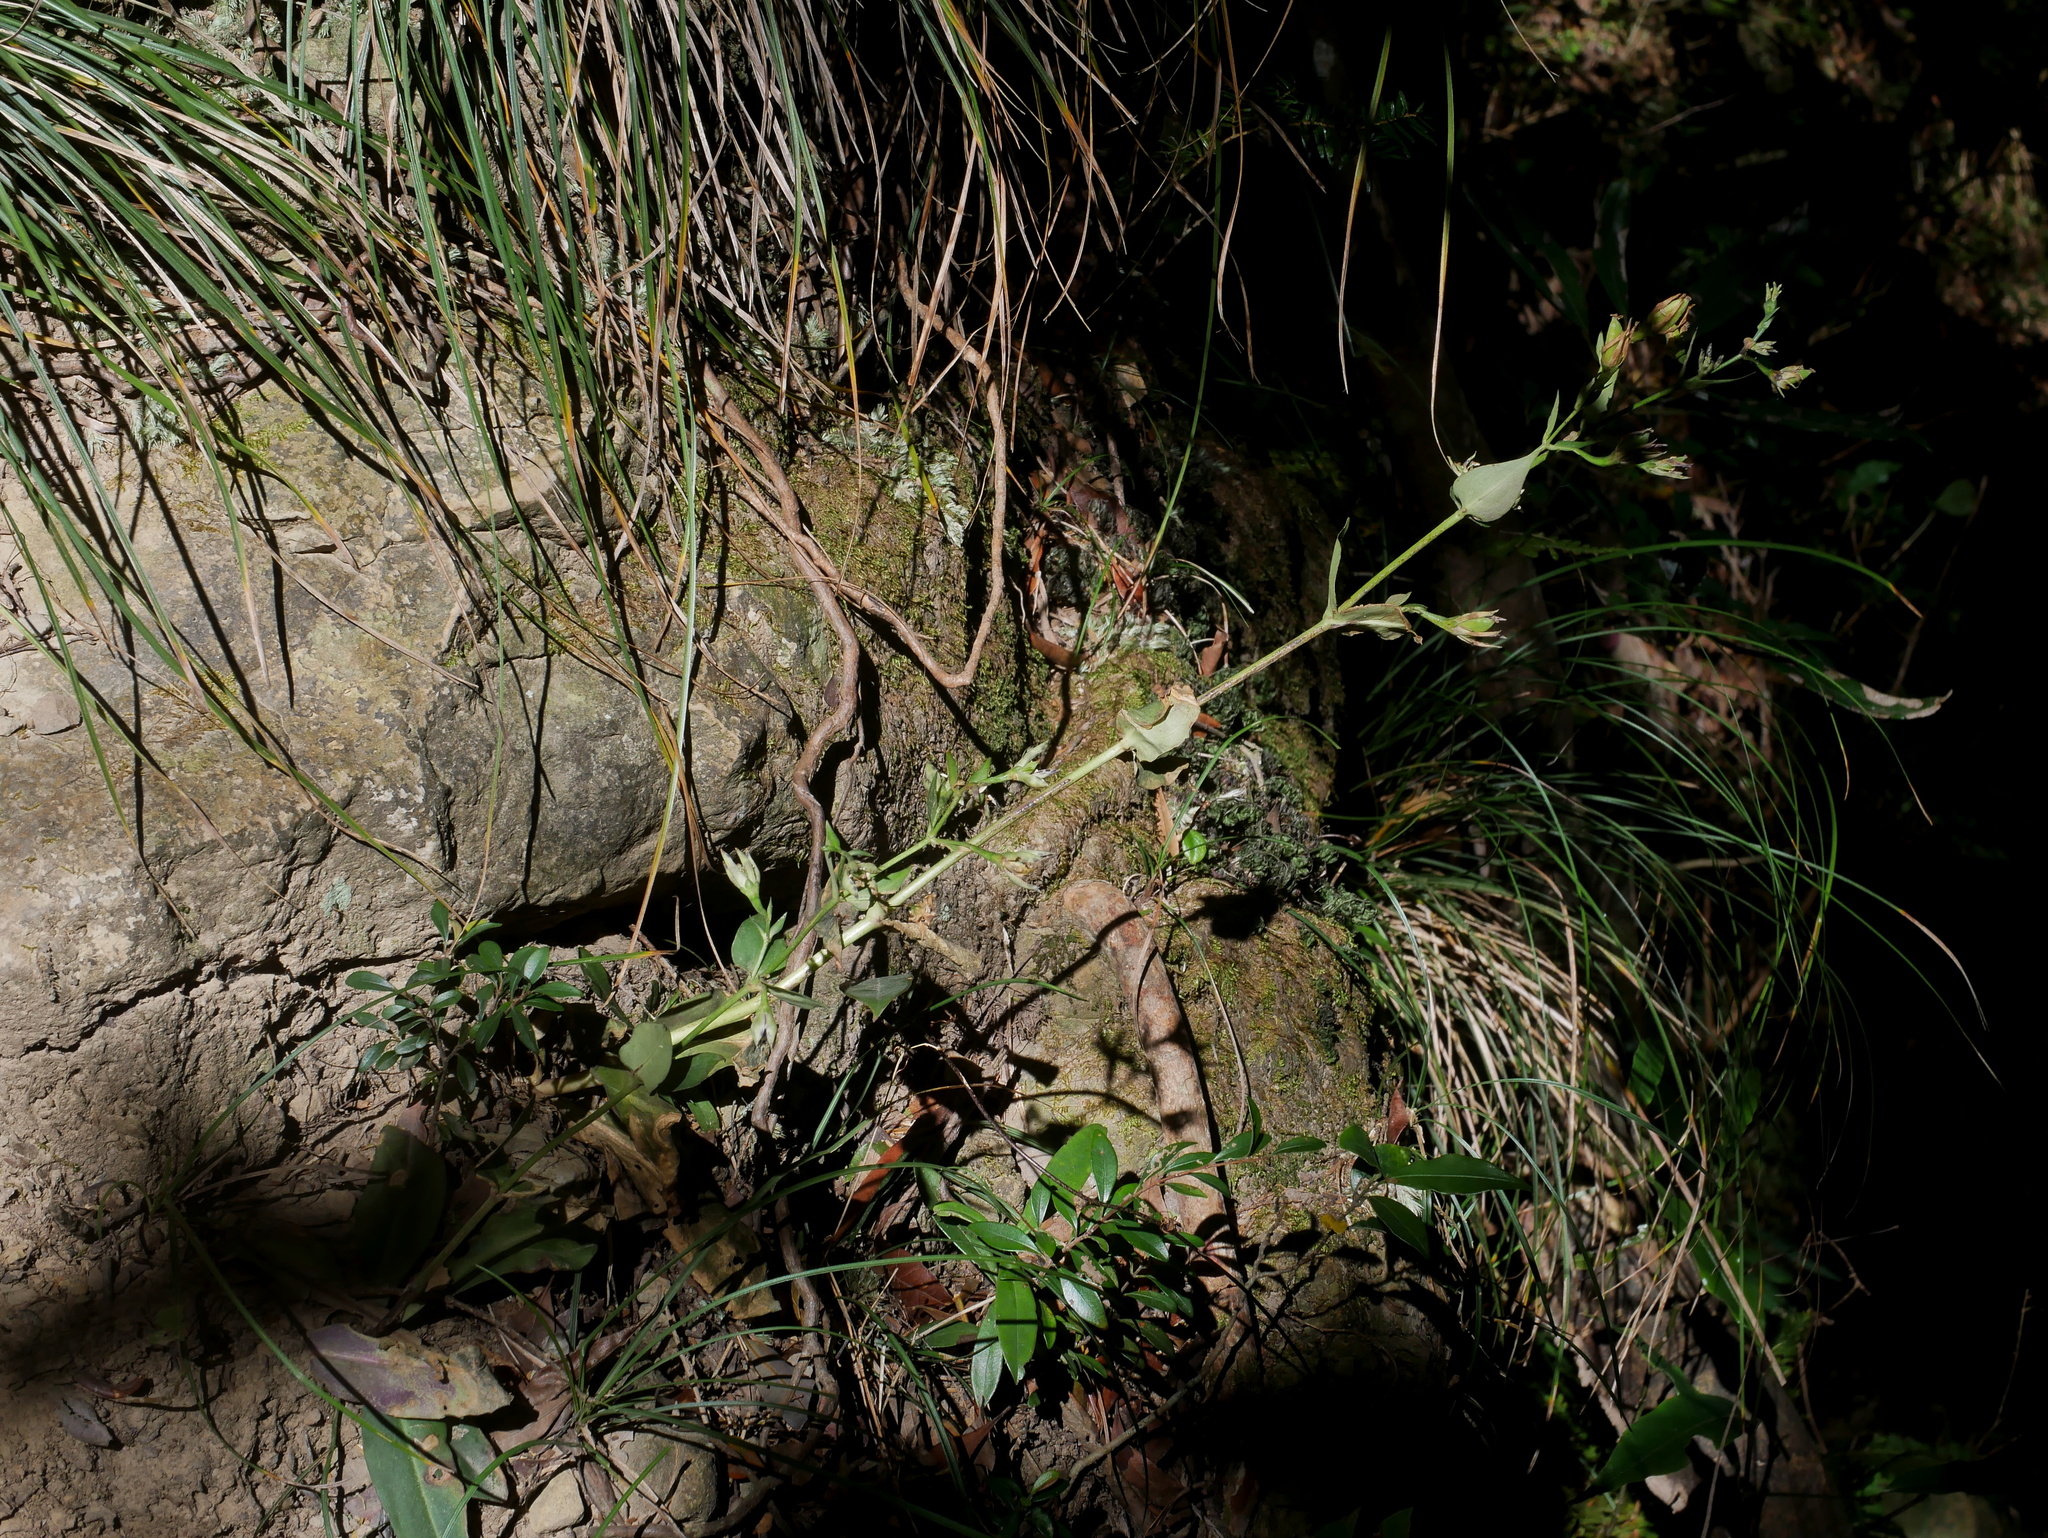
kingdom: Plantae
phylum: Tracheophyta
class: Magnoliopsida
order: Gentianales
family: Gentianaceae
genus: Swertia
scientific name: Swertia shintenensis
